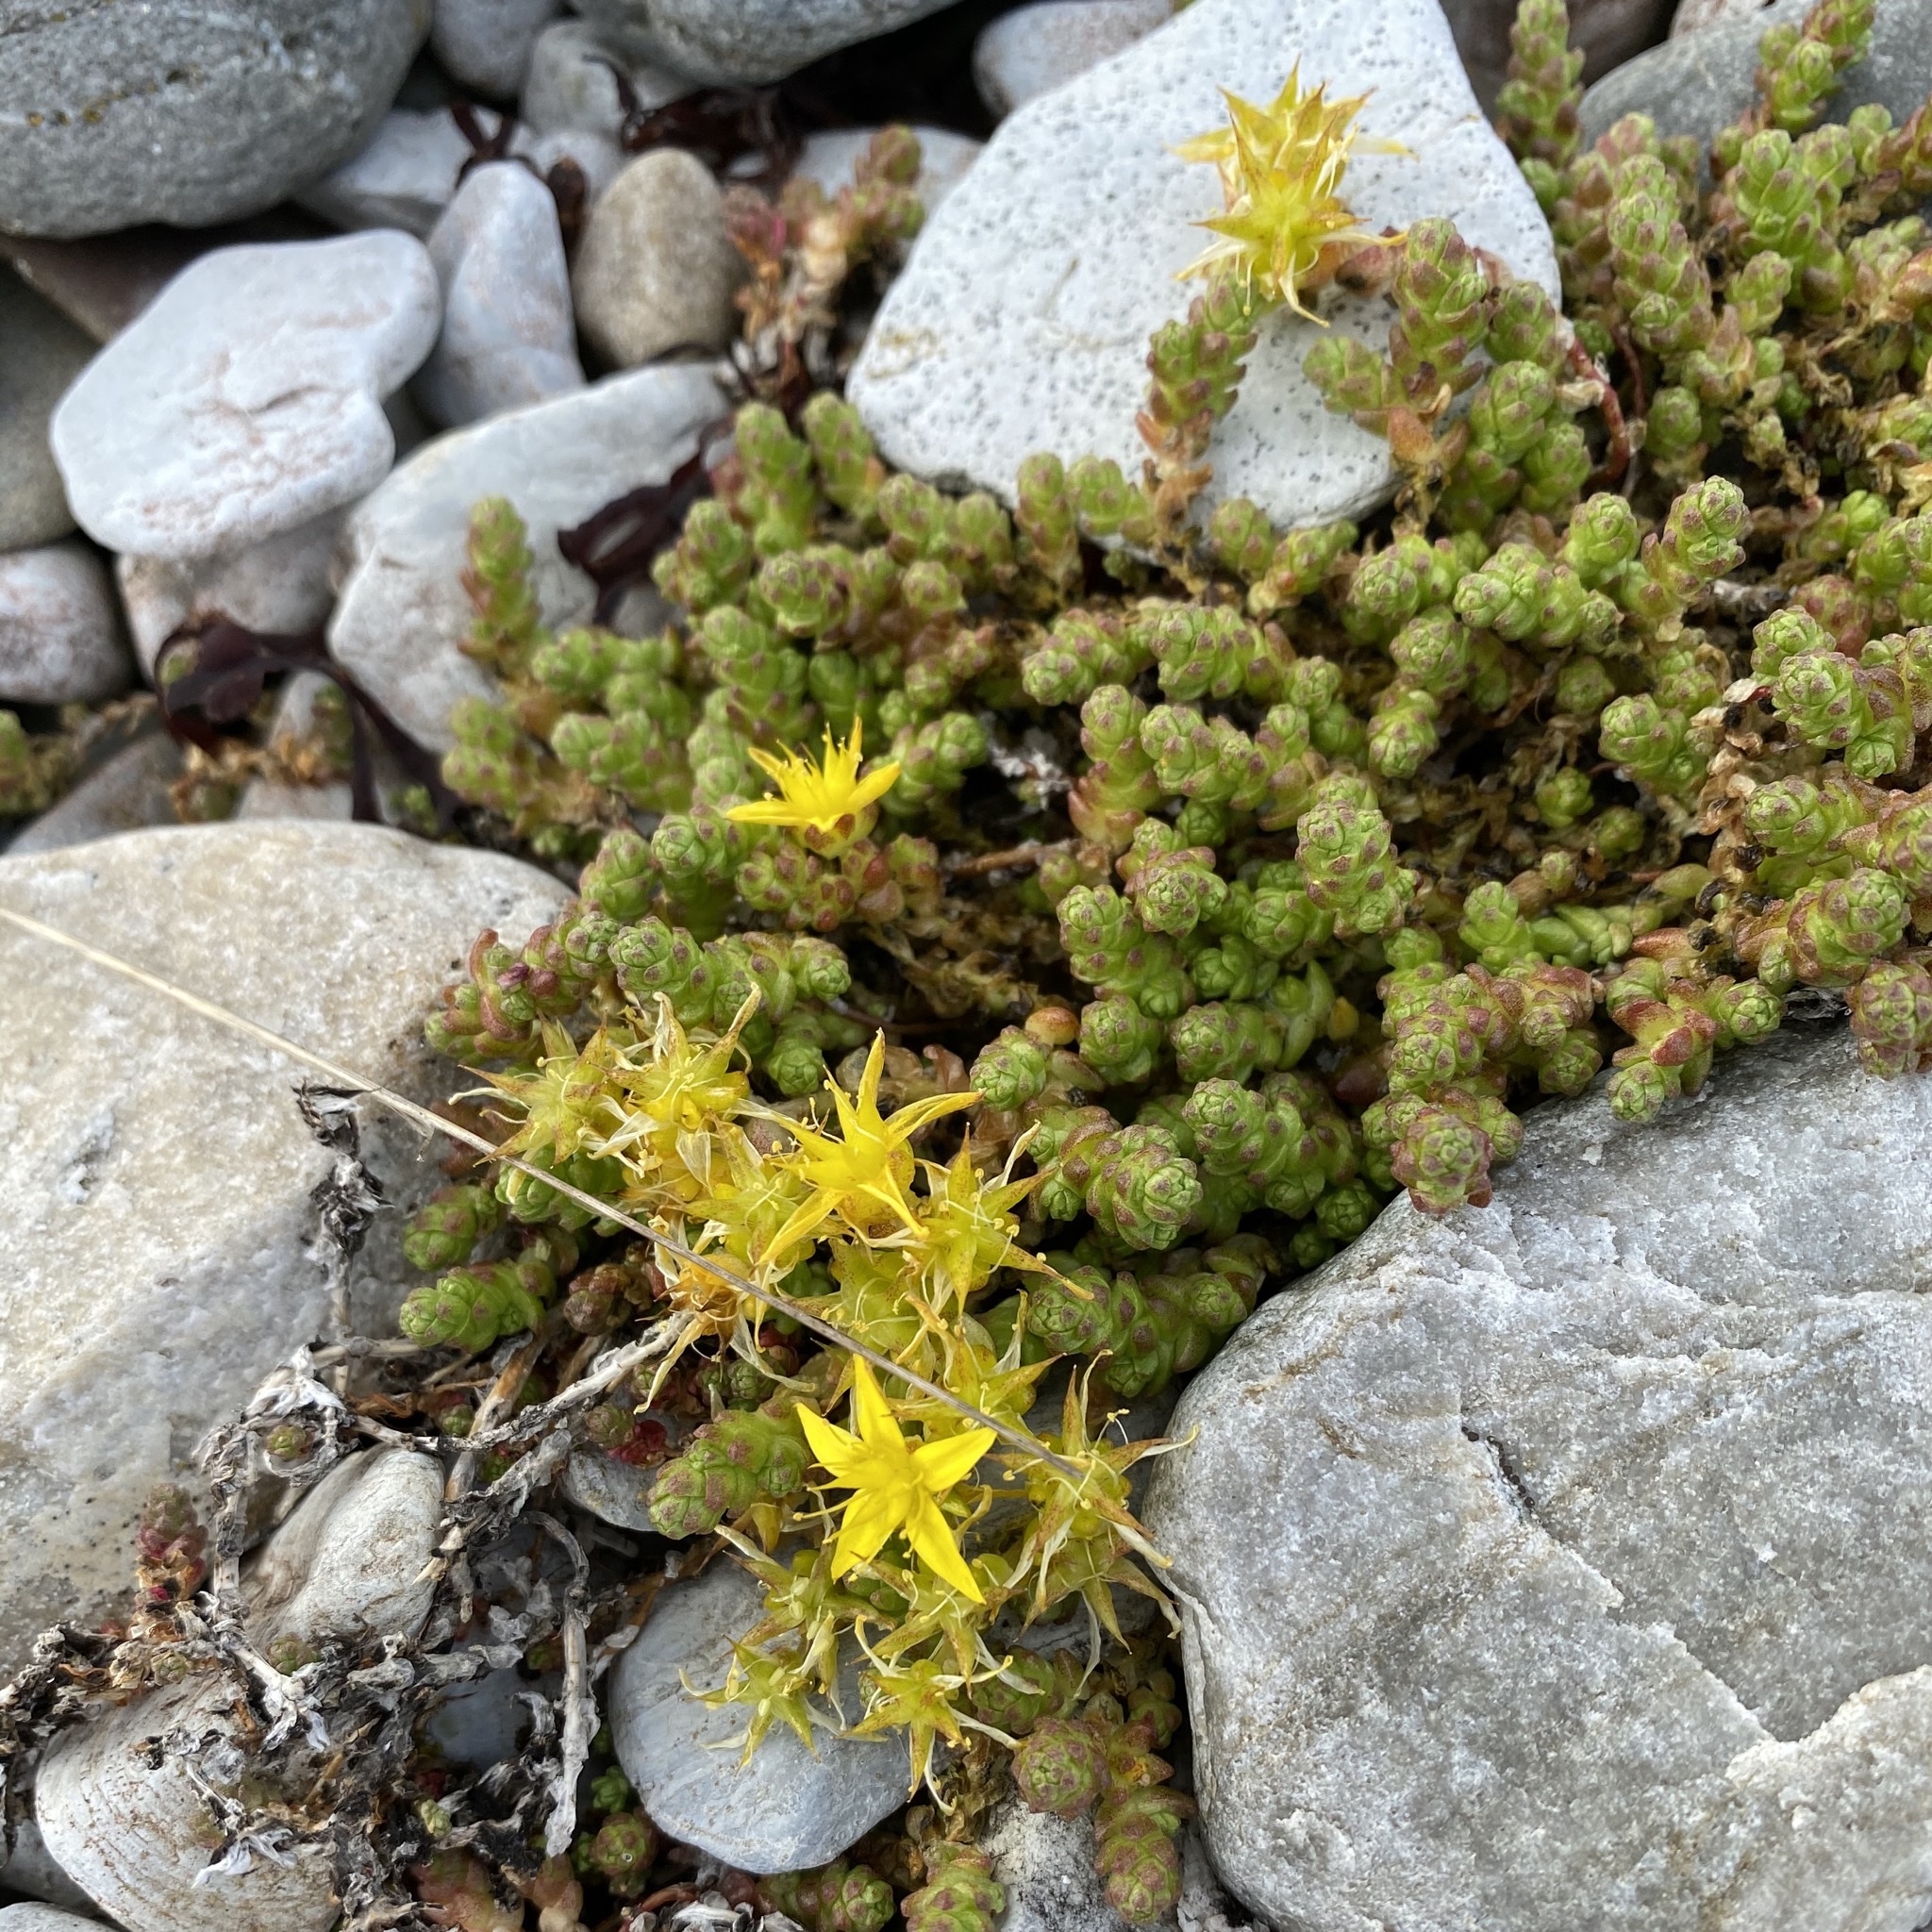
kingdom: Plantae
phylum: Tracheophyta
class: Magnoliopsida
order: Saxifragales
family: Crassulaceae
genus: Sedum
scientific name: Sedum acre
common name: Biting stonecrop
